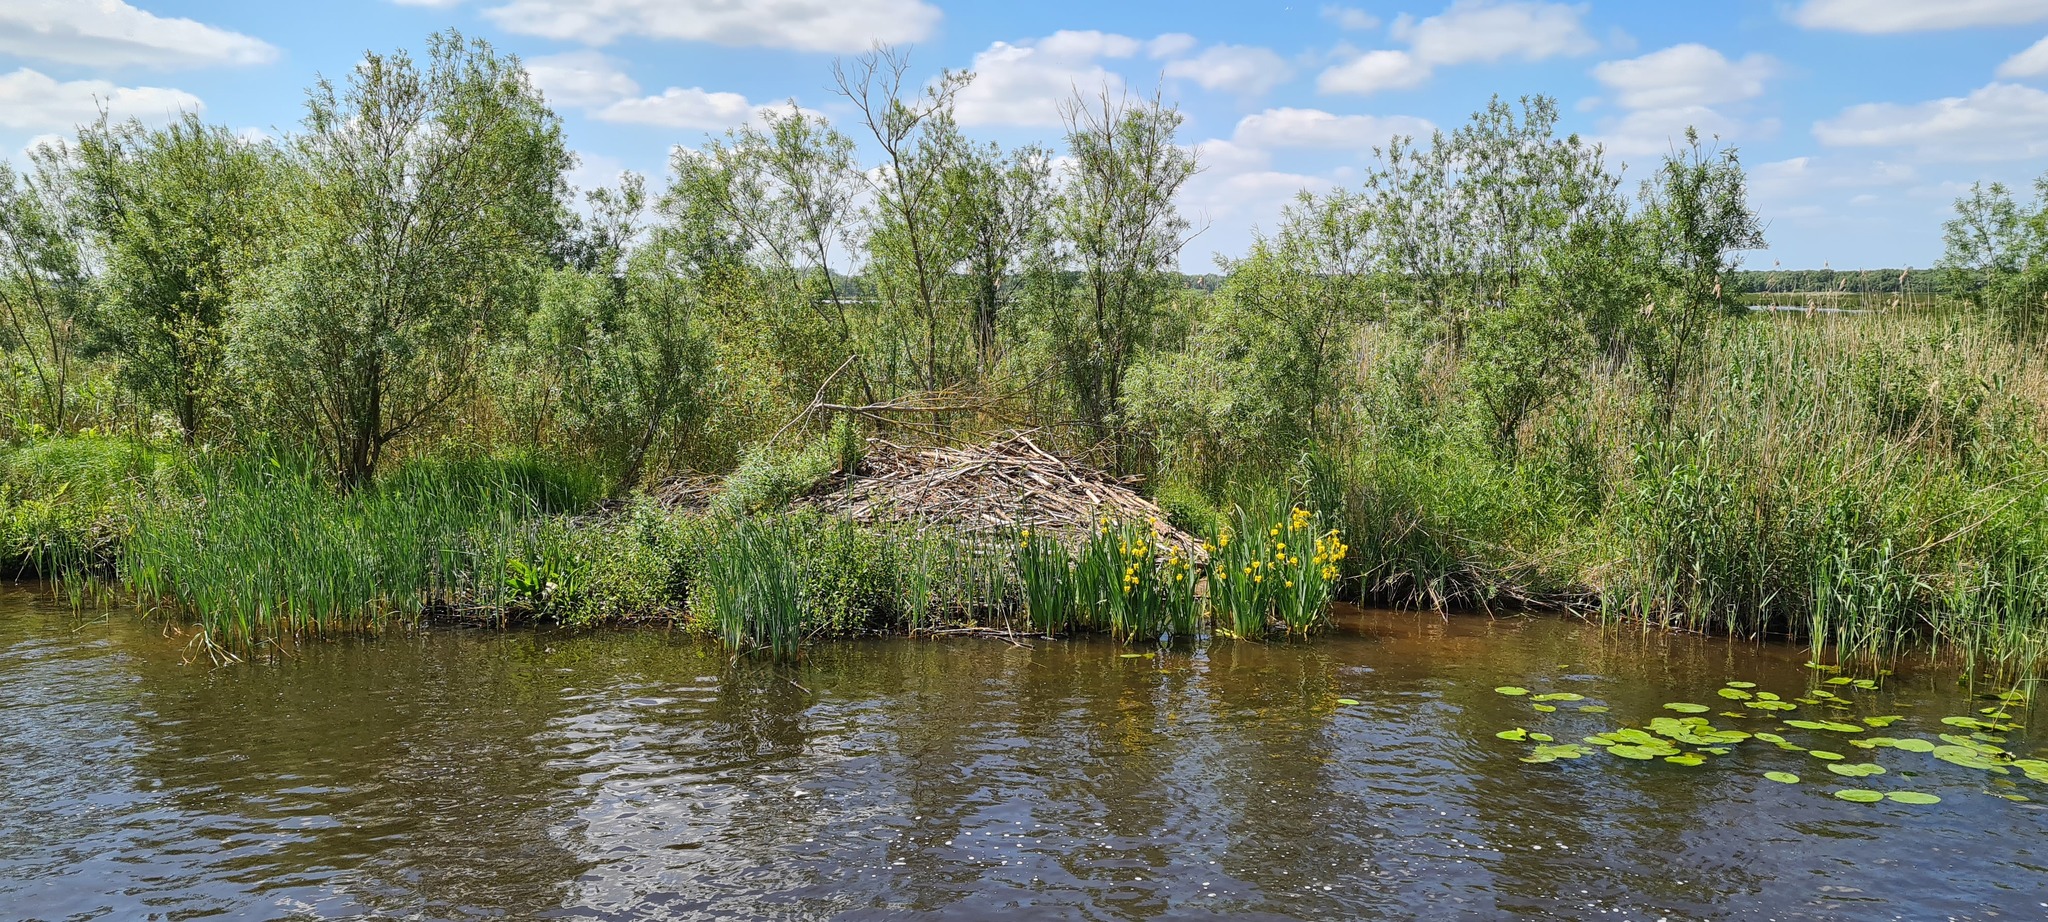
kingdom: Animalia
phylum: Chordata
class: Mammalia
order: Rodentia
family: Castoridae
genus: Castor
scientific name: Castor fiber
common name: Eurasian beaver
